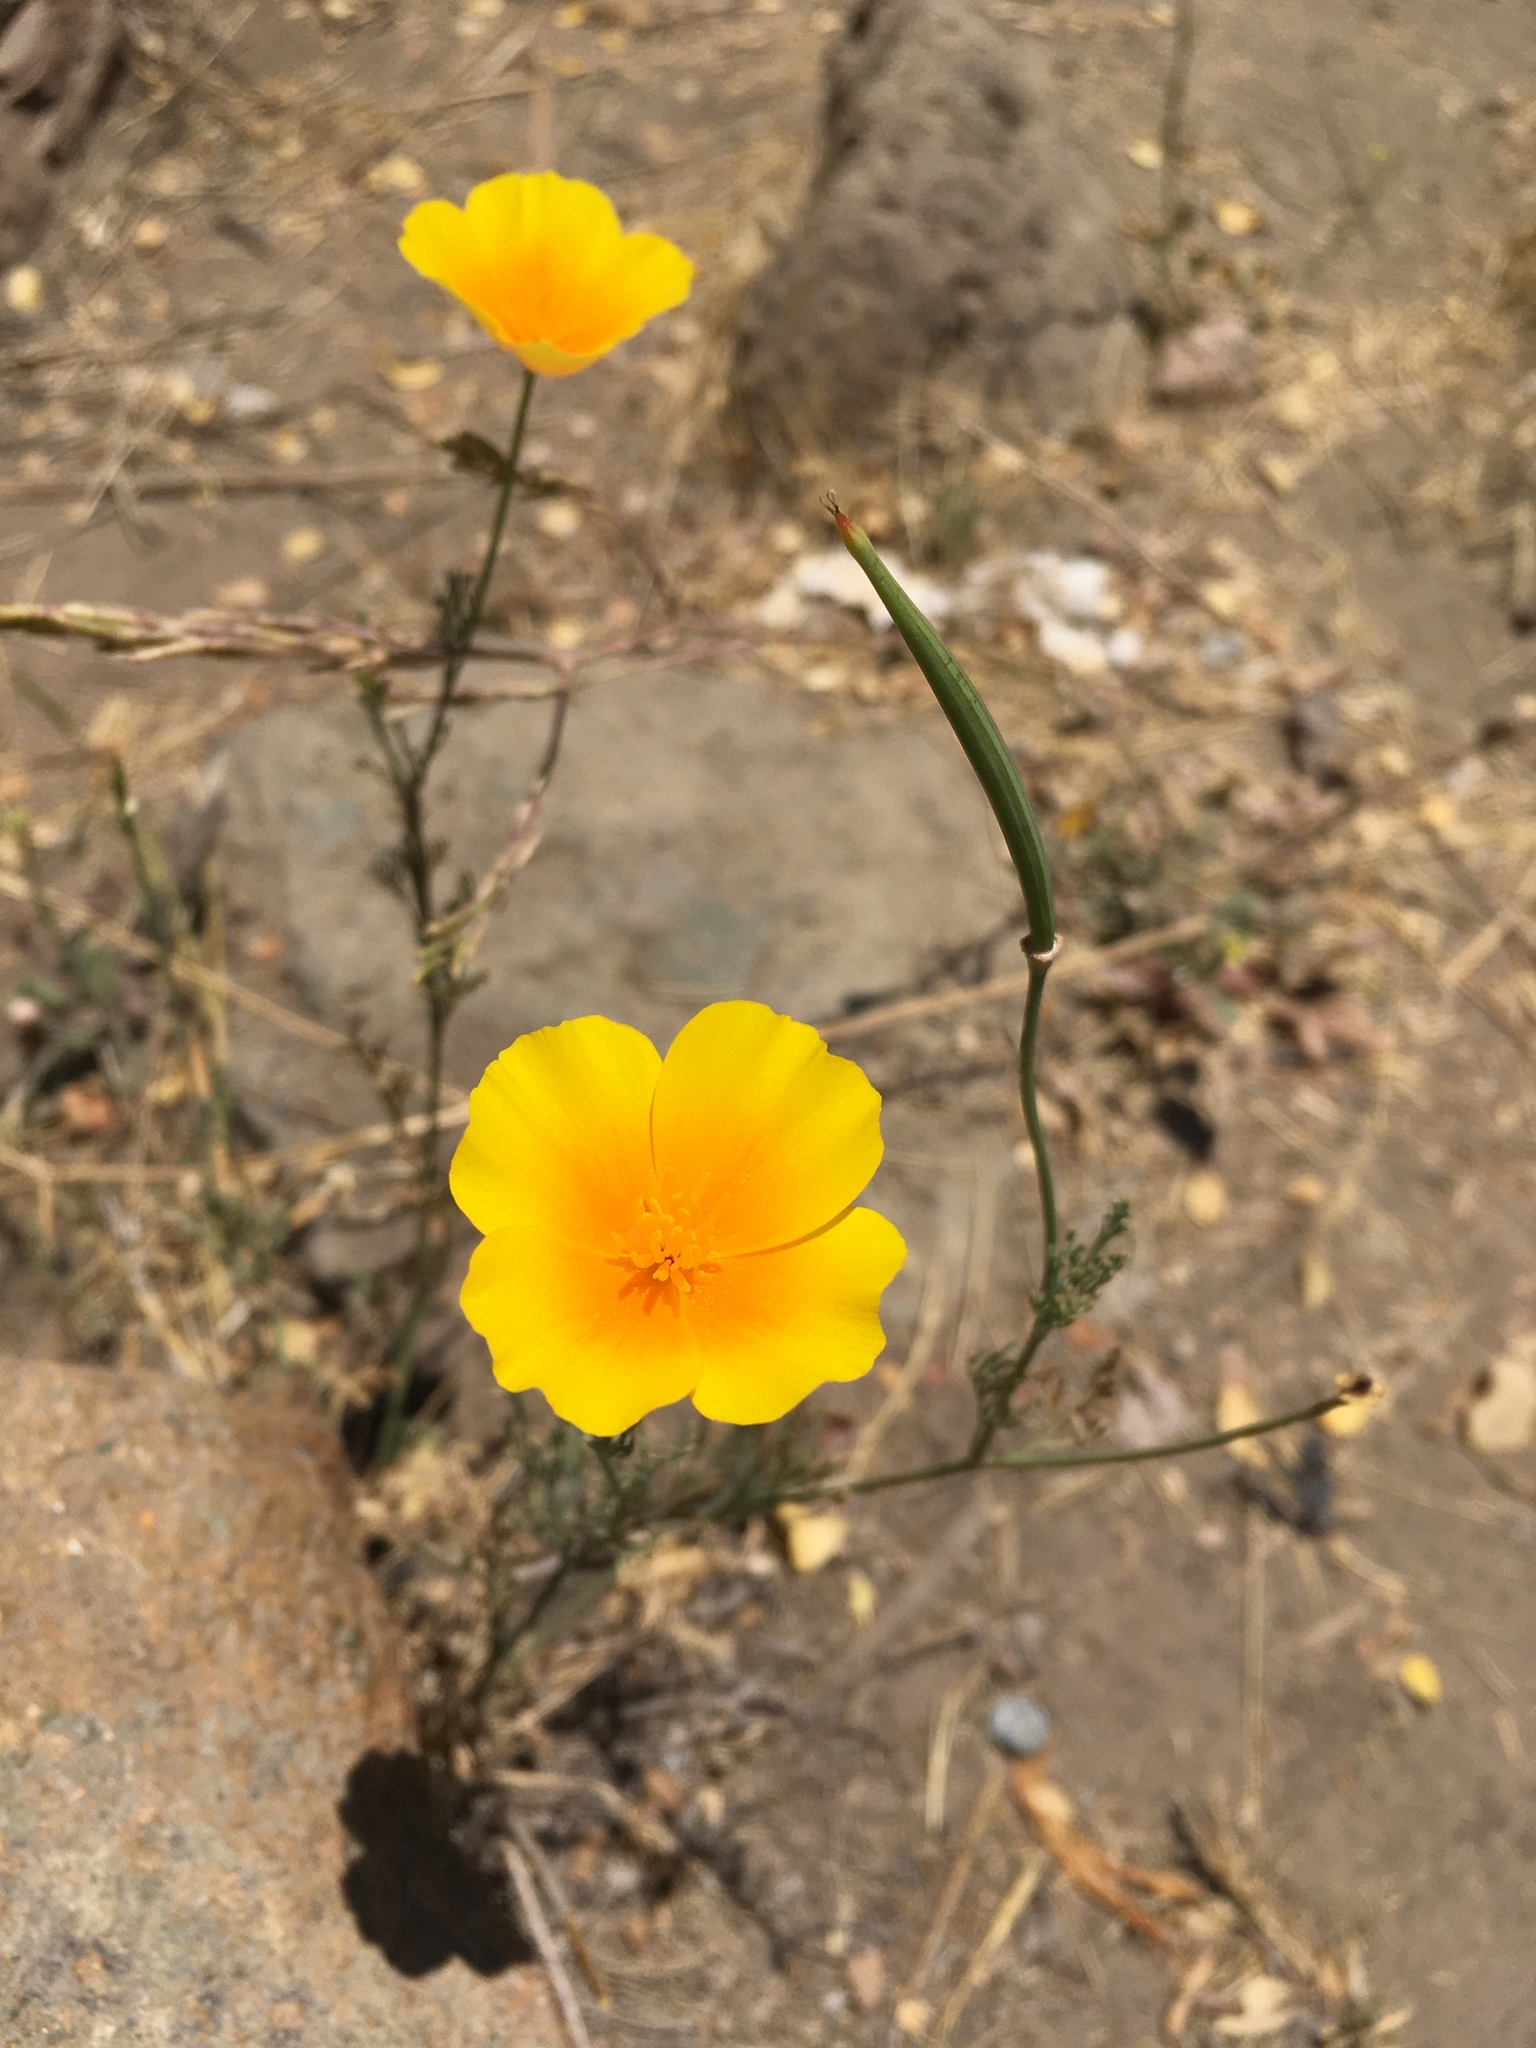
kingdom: Plantae
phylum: Tracheophyta
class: Magnoliopsida
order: Ranunculales
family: Papaveraceae
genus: Eschscholzia
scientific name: Eschscholzia californica
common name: California poppy
